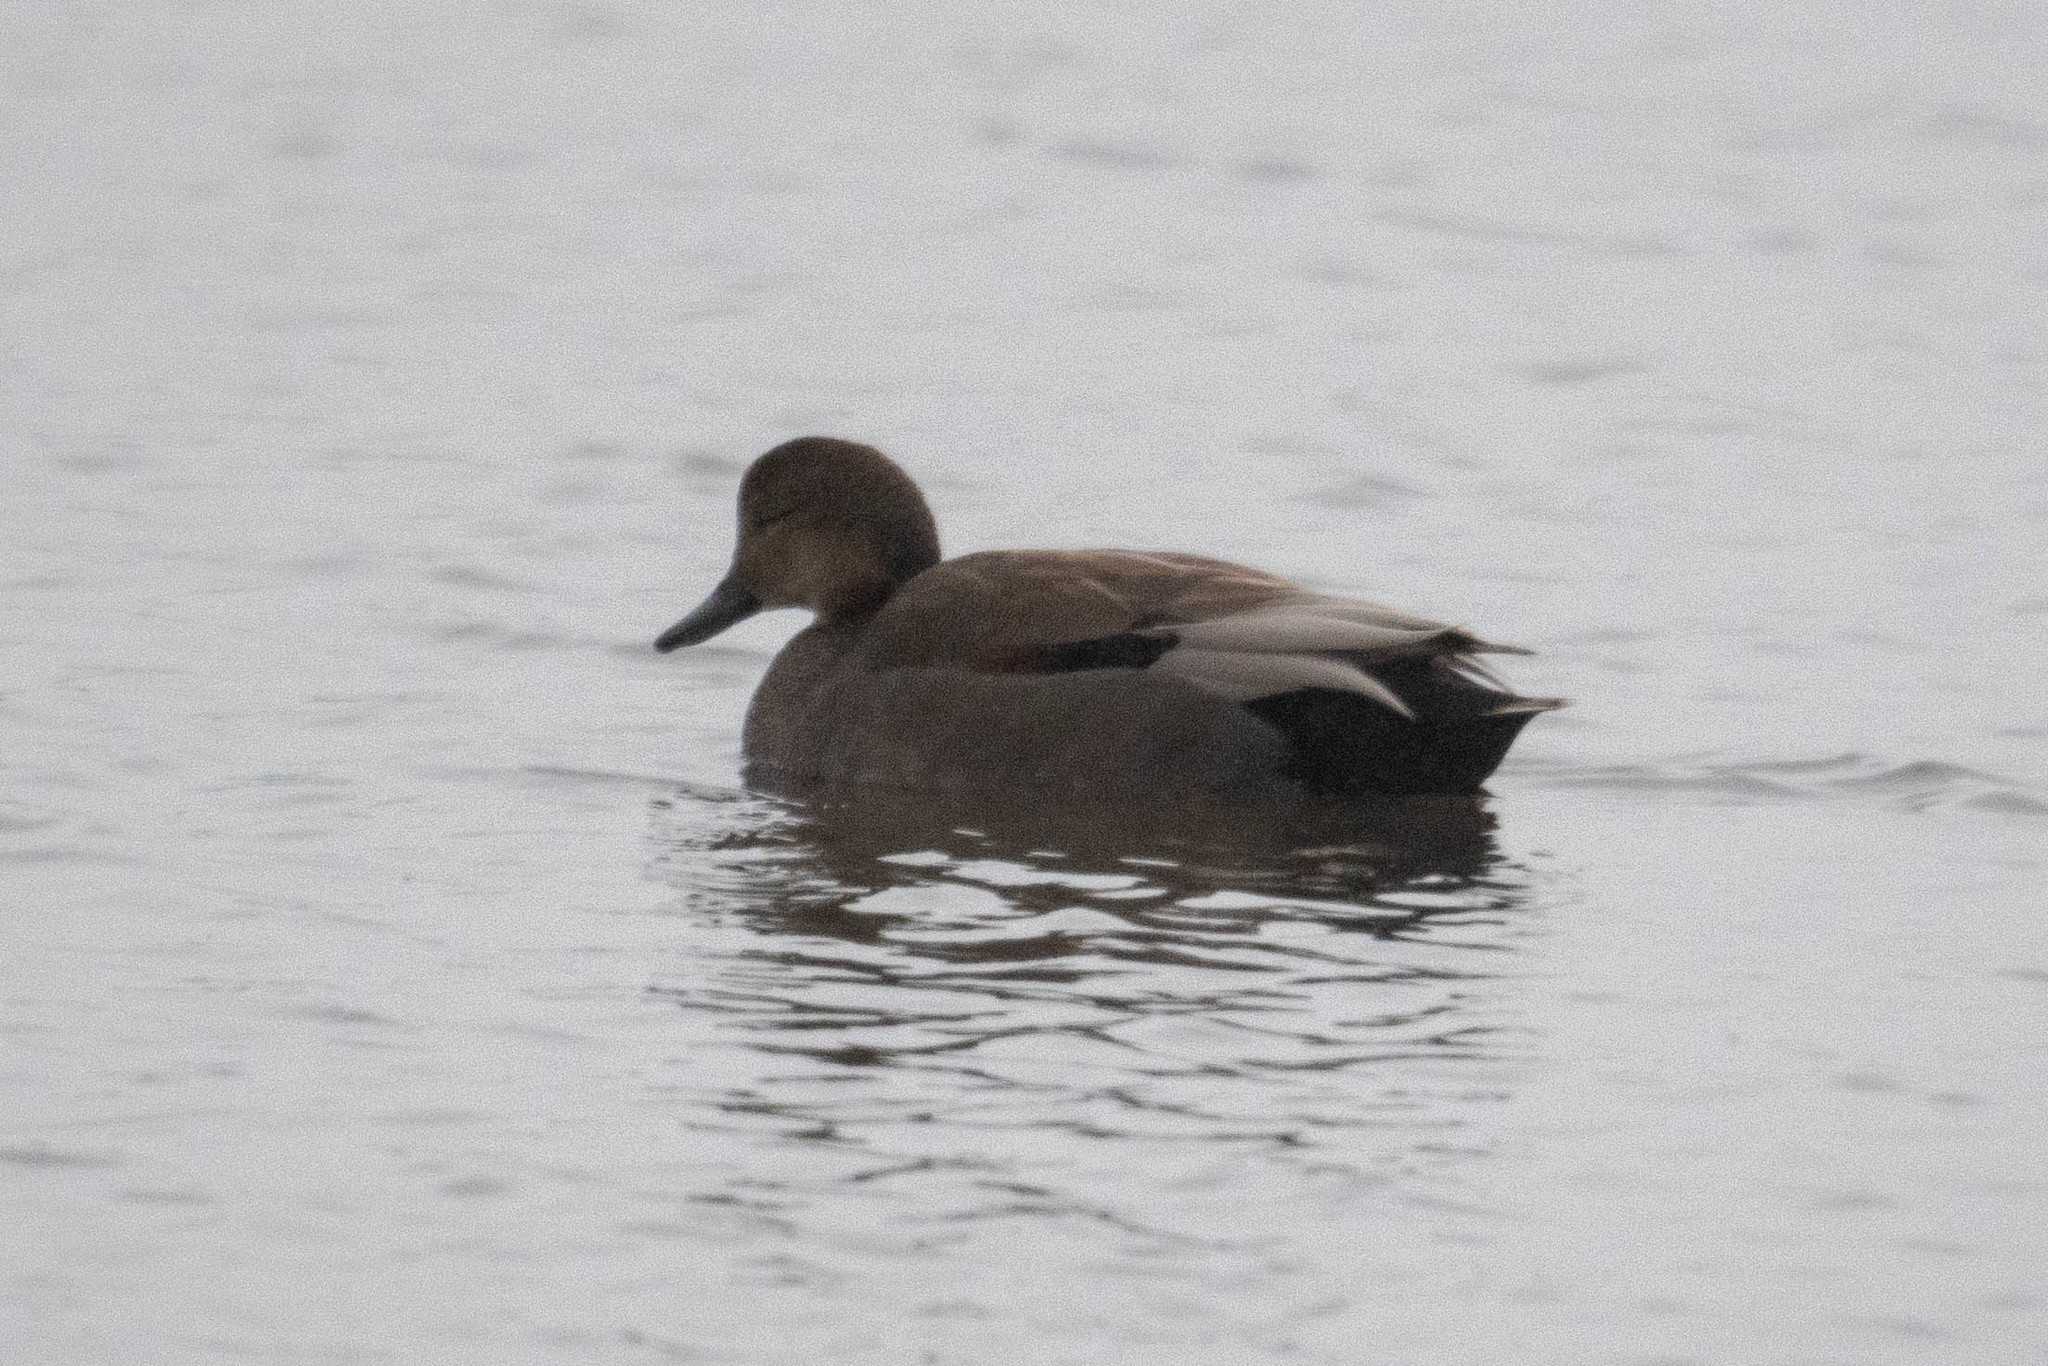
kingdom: Animalia
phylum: Chordata
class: Aves
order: Anseriformes
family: Anatidae
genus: Mareca
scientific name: Mareca strepera
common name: Gadwall
